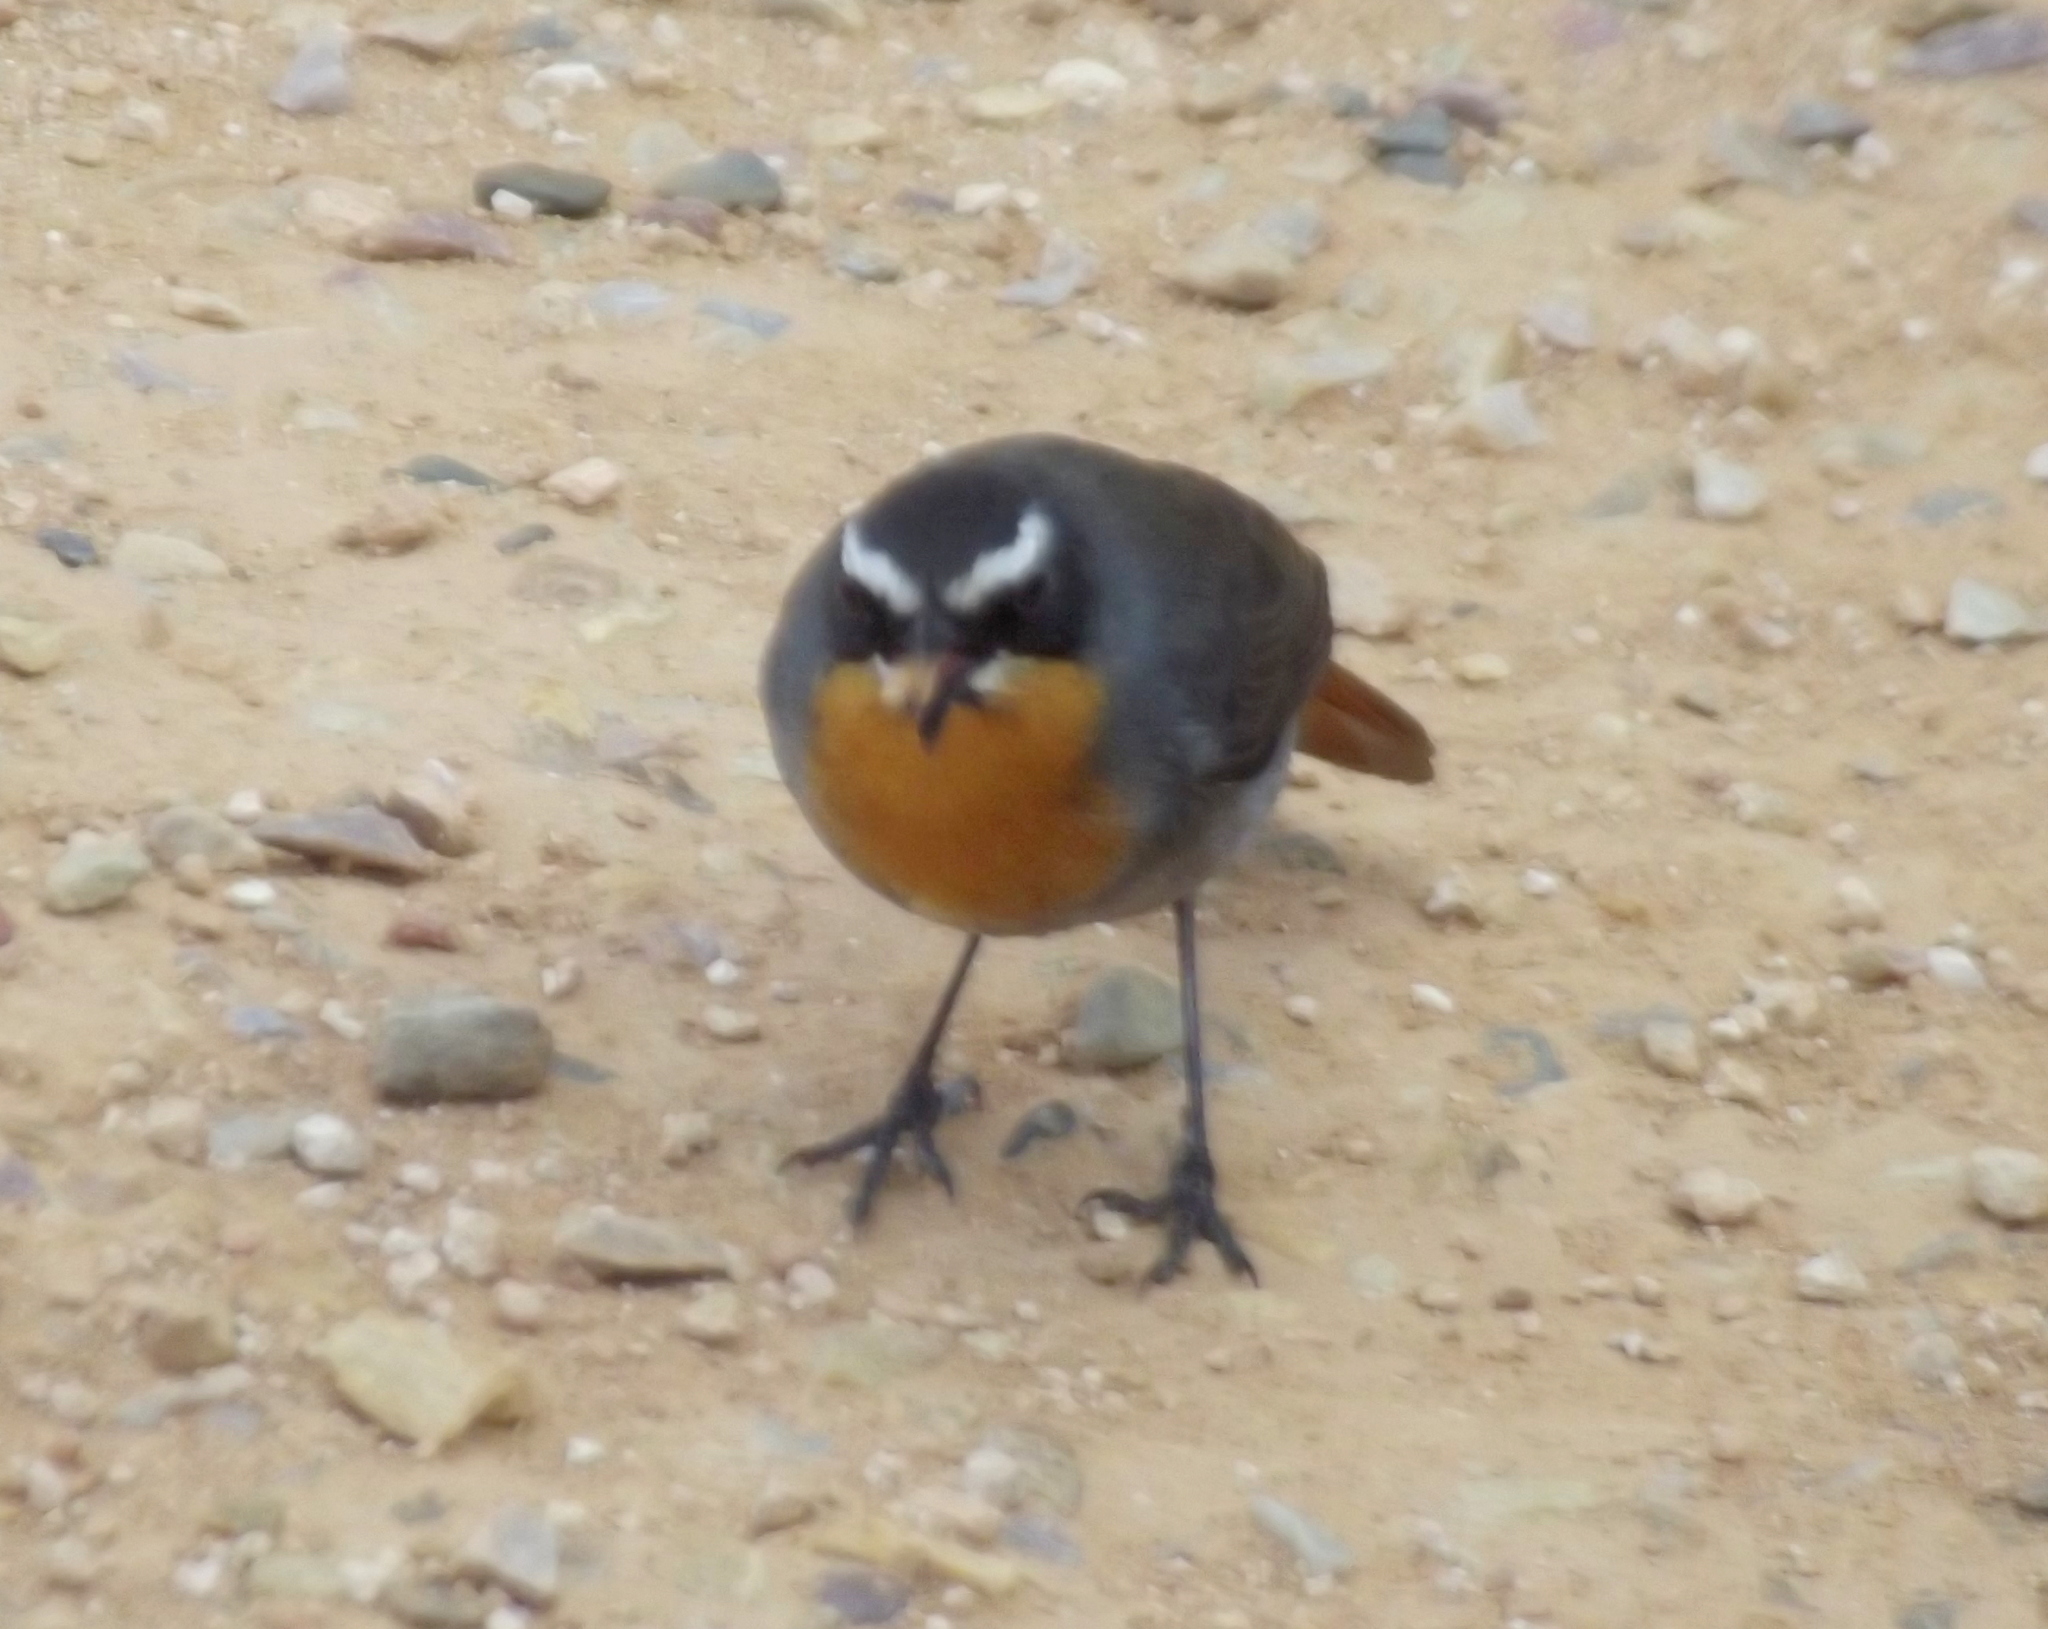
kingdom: Animalia
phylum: Chordata
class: Aves
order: Passeriformes
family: Muscicapidae
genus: Cossypha
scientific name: Cossypha caffra
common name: Cape robin-chat
